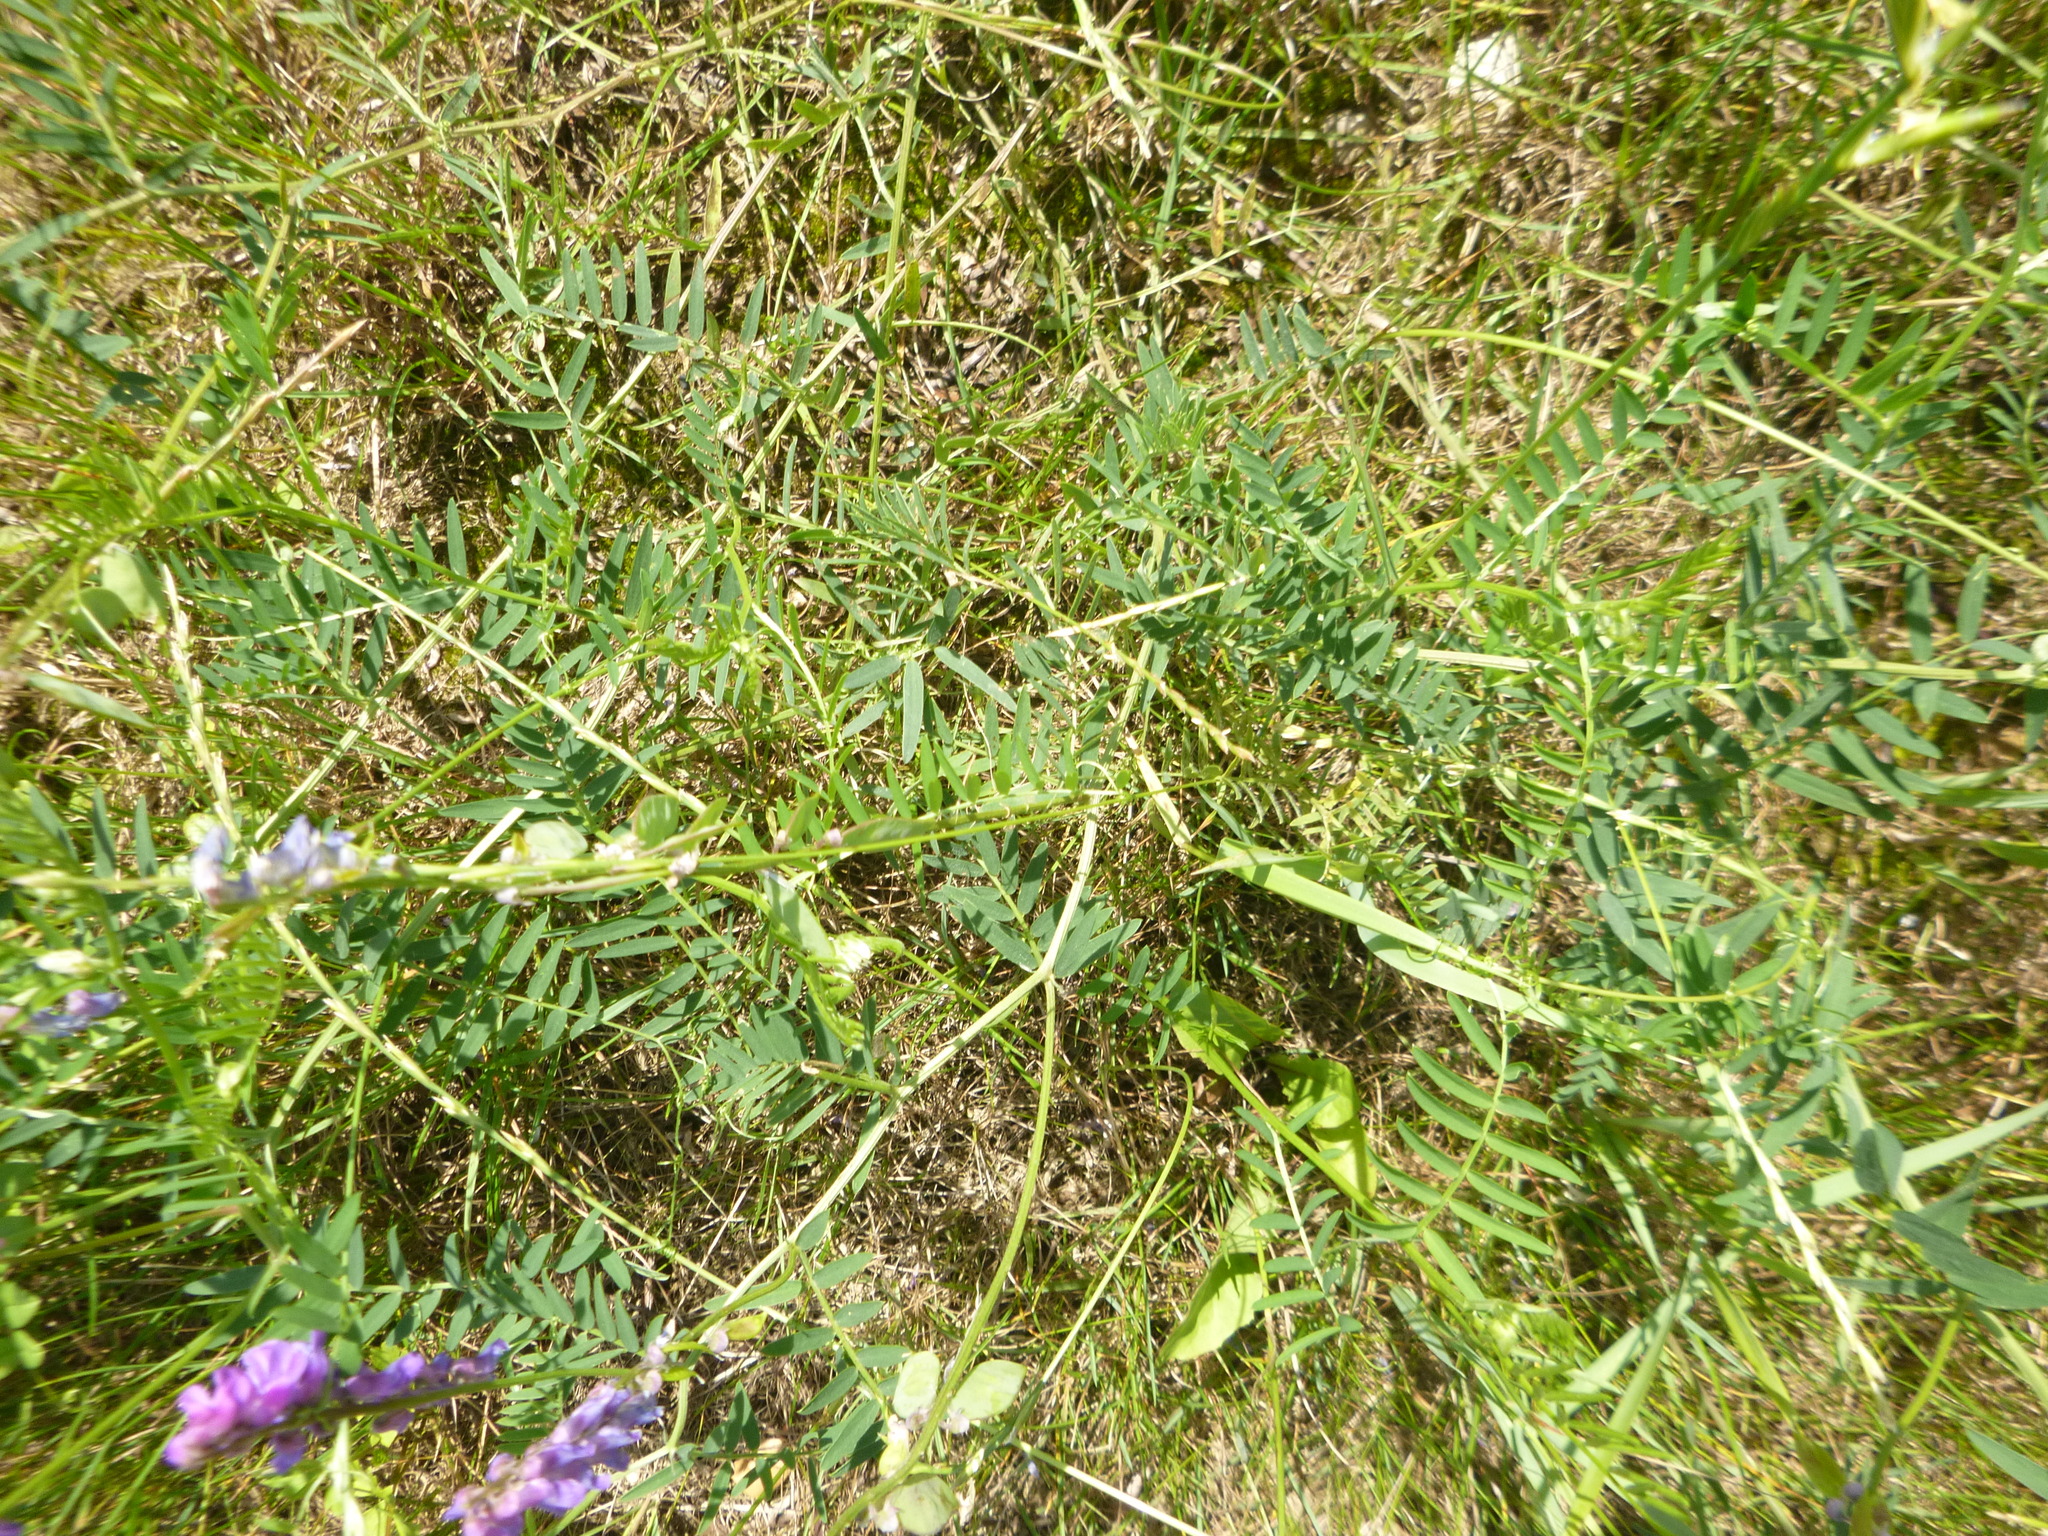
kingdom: Plantae
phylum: Tracheophyta
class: Magnoliopsida
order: Fabales
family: Fabaceae
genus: Vicia
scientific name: Vicia cracca
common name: Bird vetch
